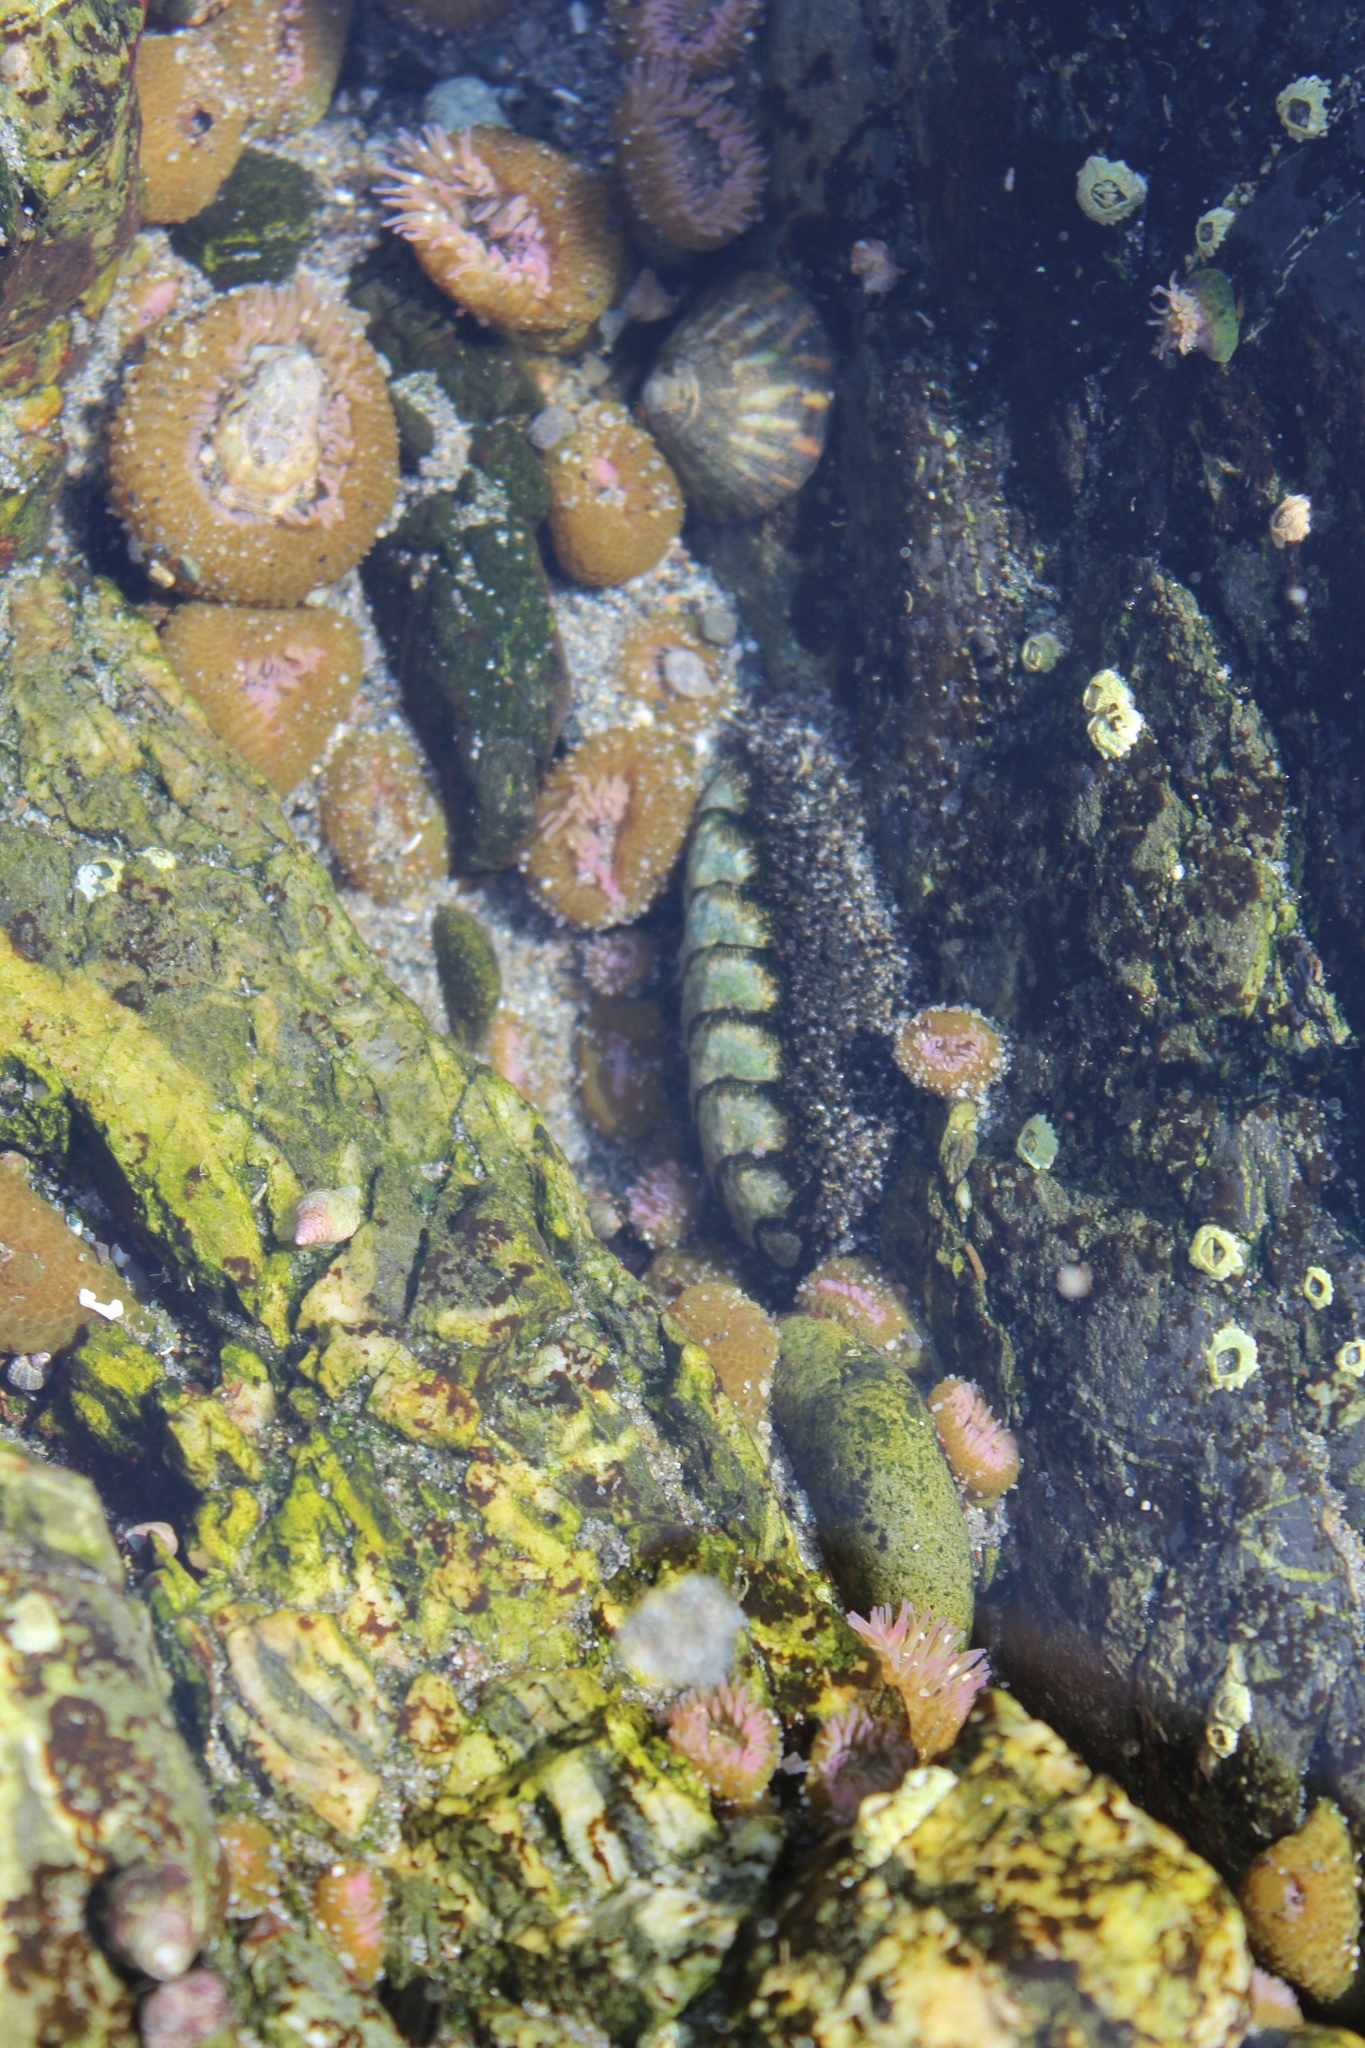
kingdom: Animalia
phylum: Mollusca
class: Polyplacophora
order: Chitonida
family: Mopaliidae
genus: Mopalia
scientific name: Mopalia muscosa
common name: Mossy chiton
